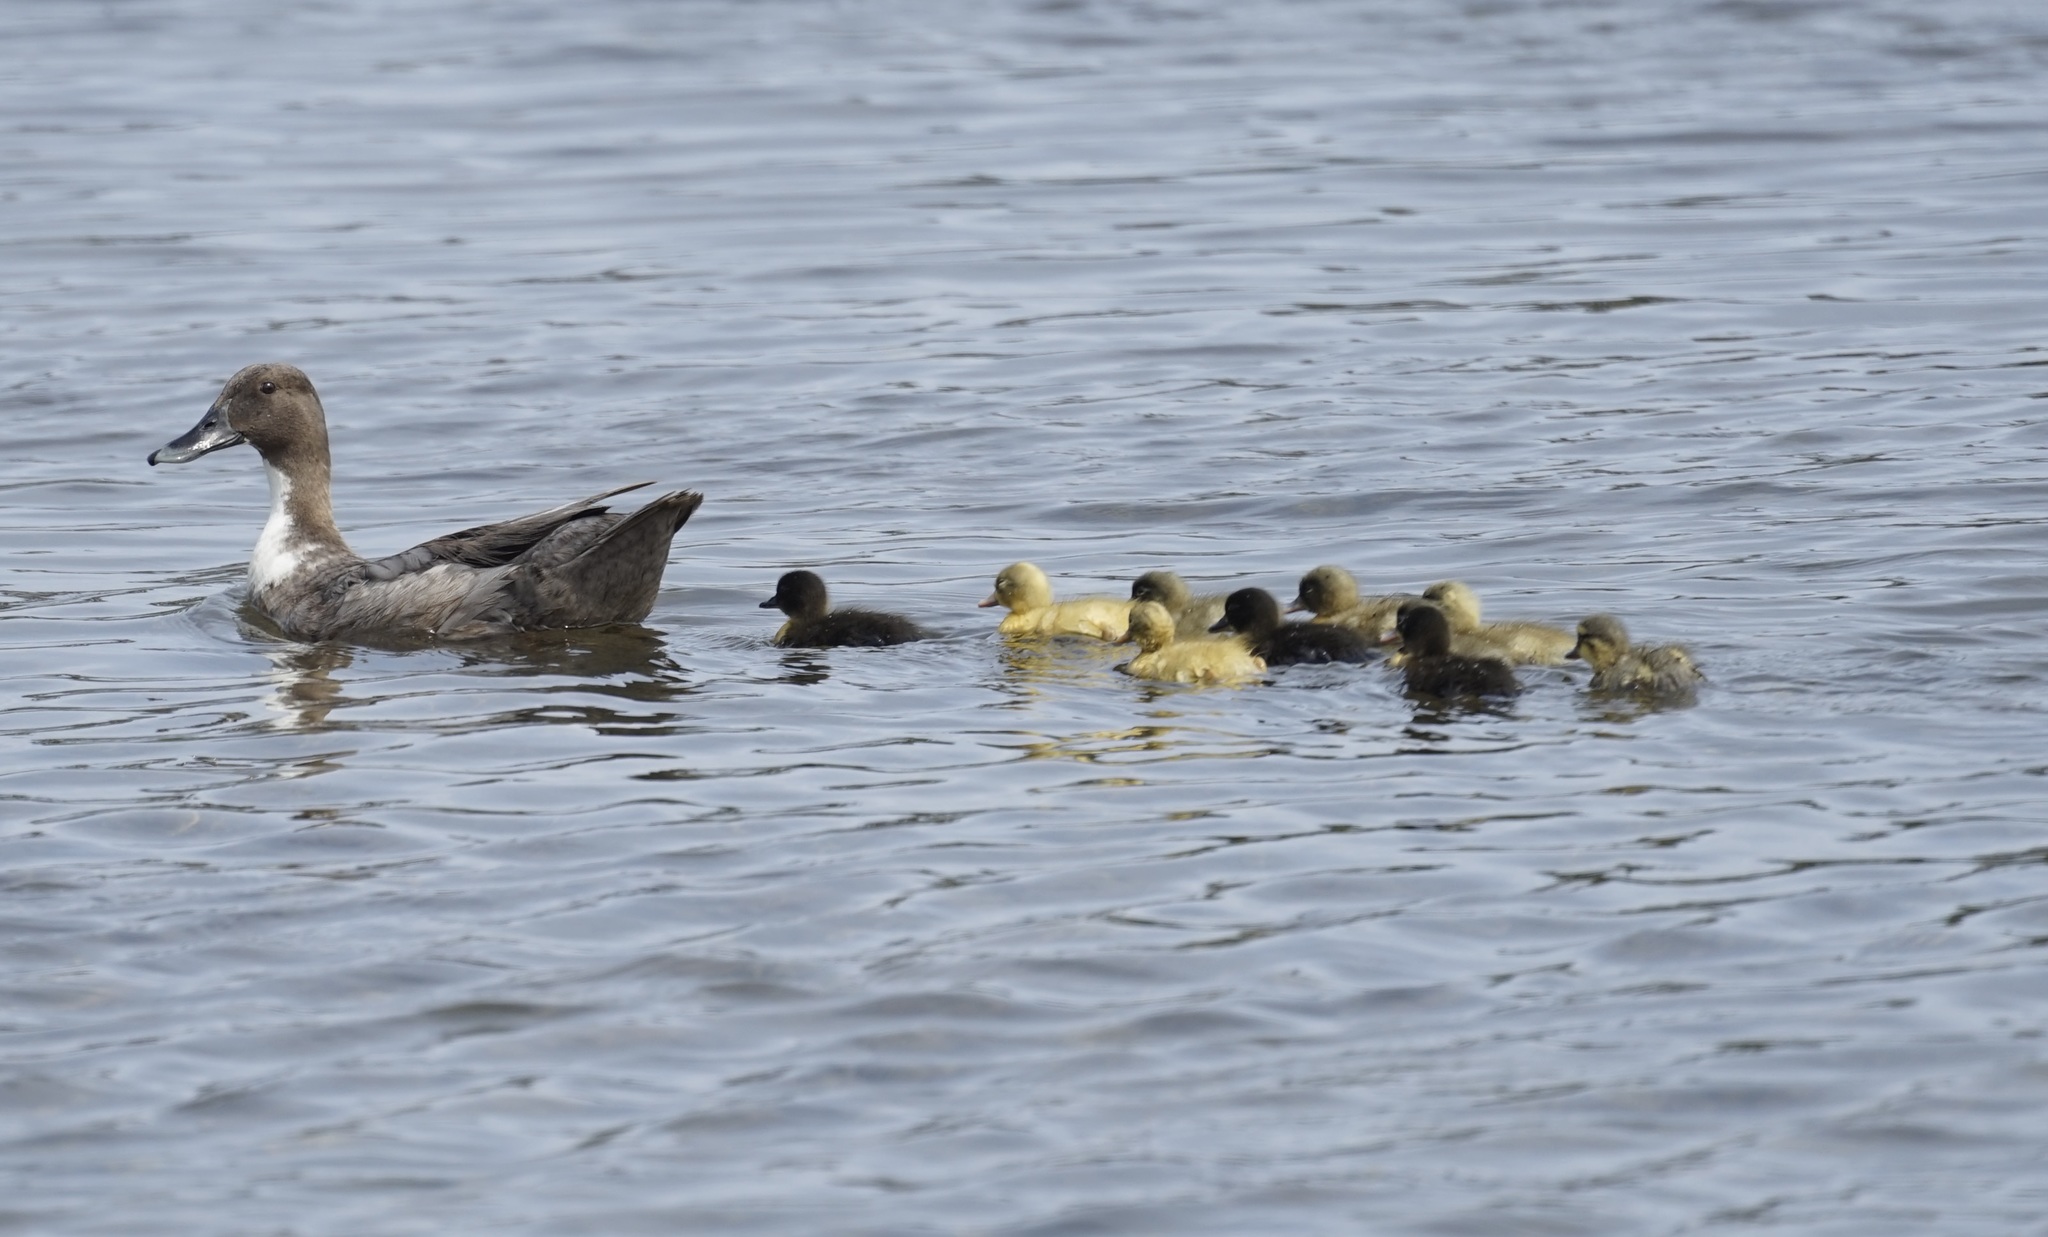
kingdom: Animalia
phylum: Chordata
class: Aves
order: Anseriformes
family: Anatidae
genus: Anas
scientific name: Anas platyrhynchos
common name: Mallard
